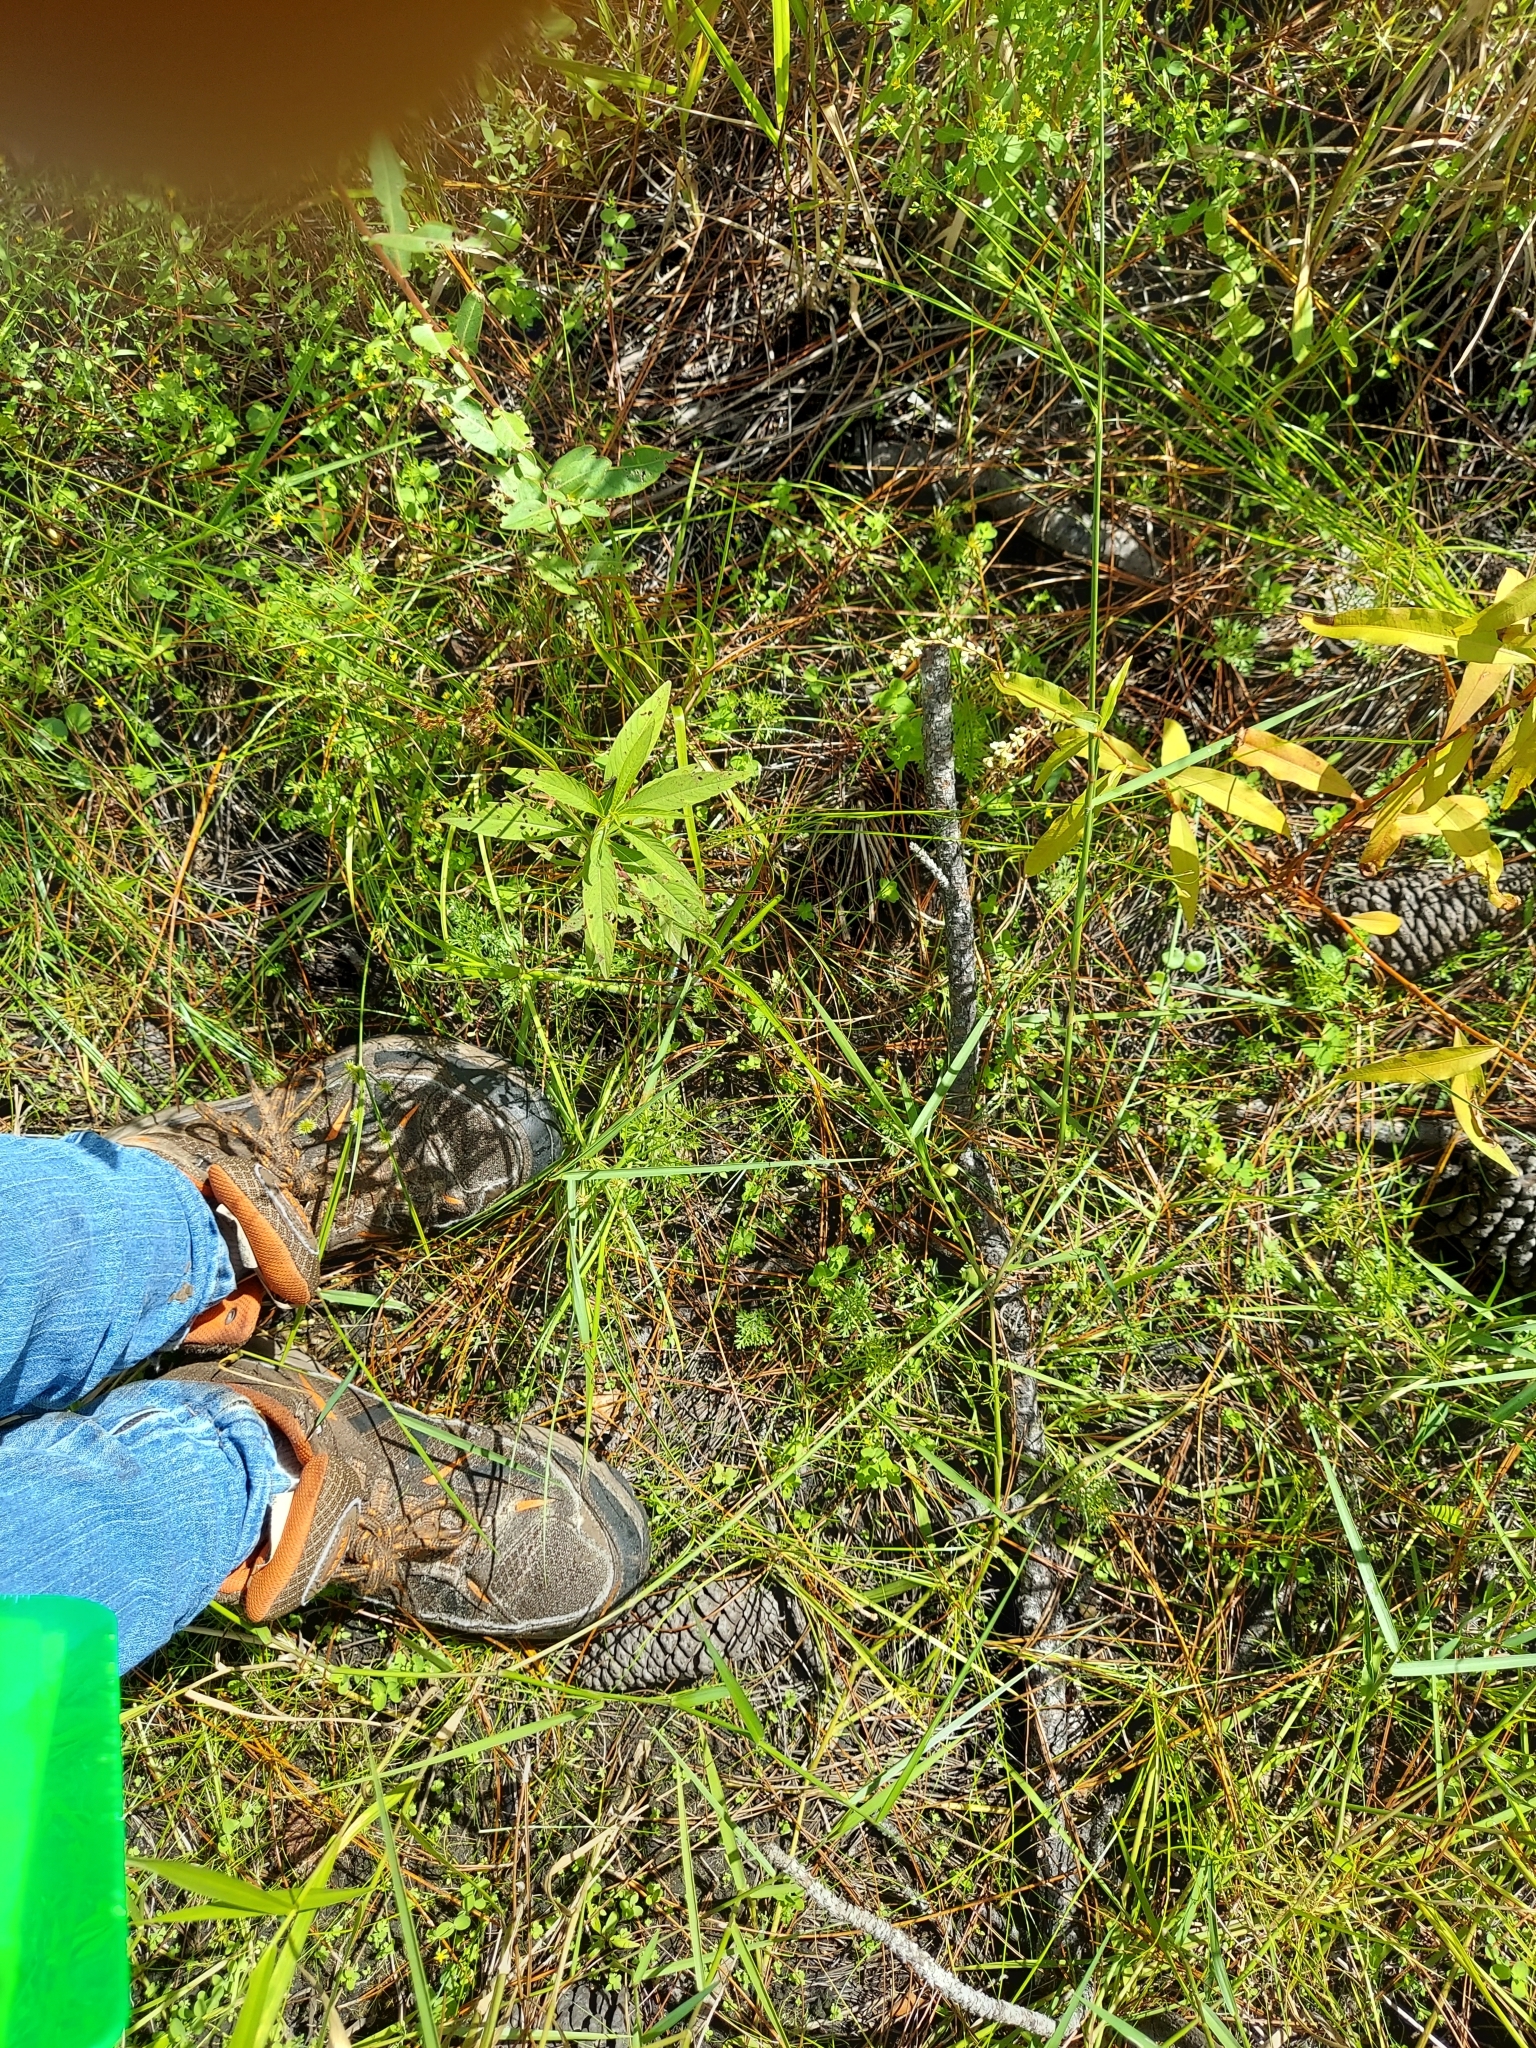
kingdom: Plantae
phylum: Tracheophyta
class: Liliopsida
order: Poales
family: Poaceae
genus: Sacciolepis
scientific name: Sacciolepis striata
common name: American cupscale
